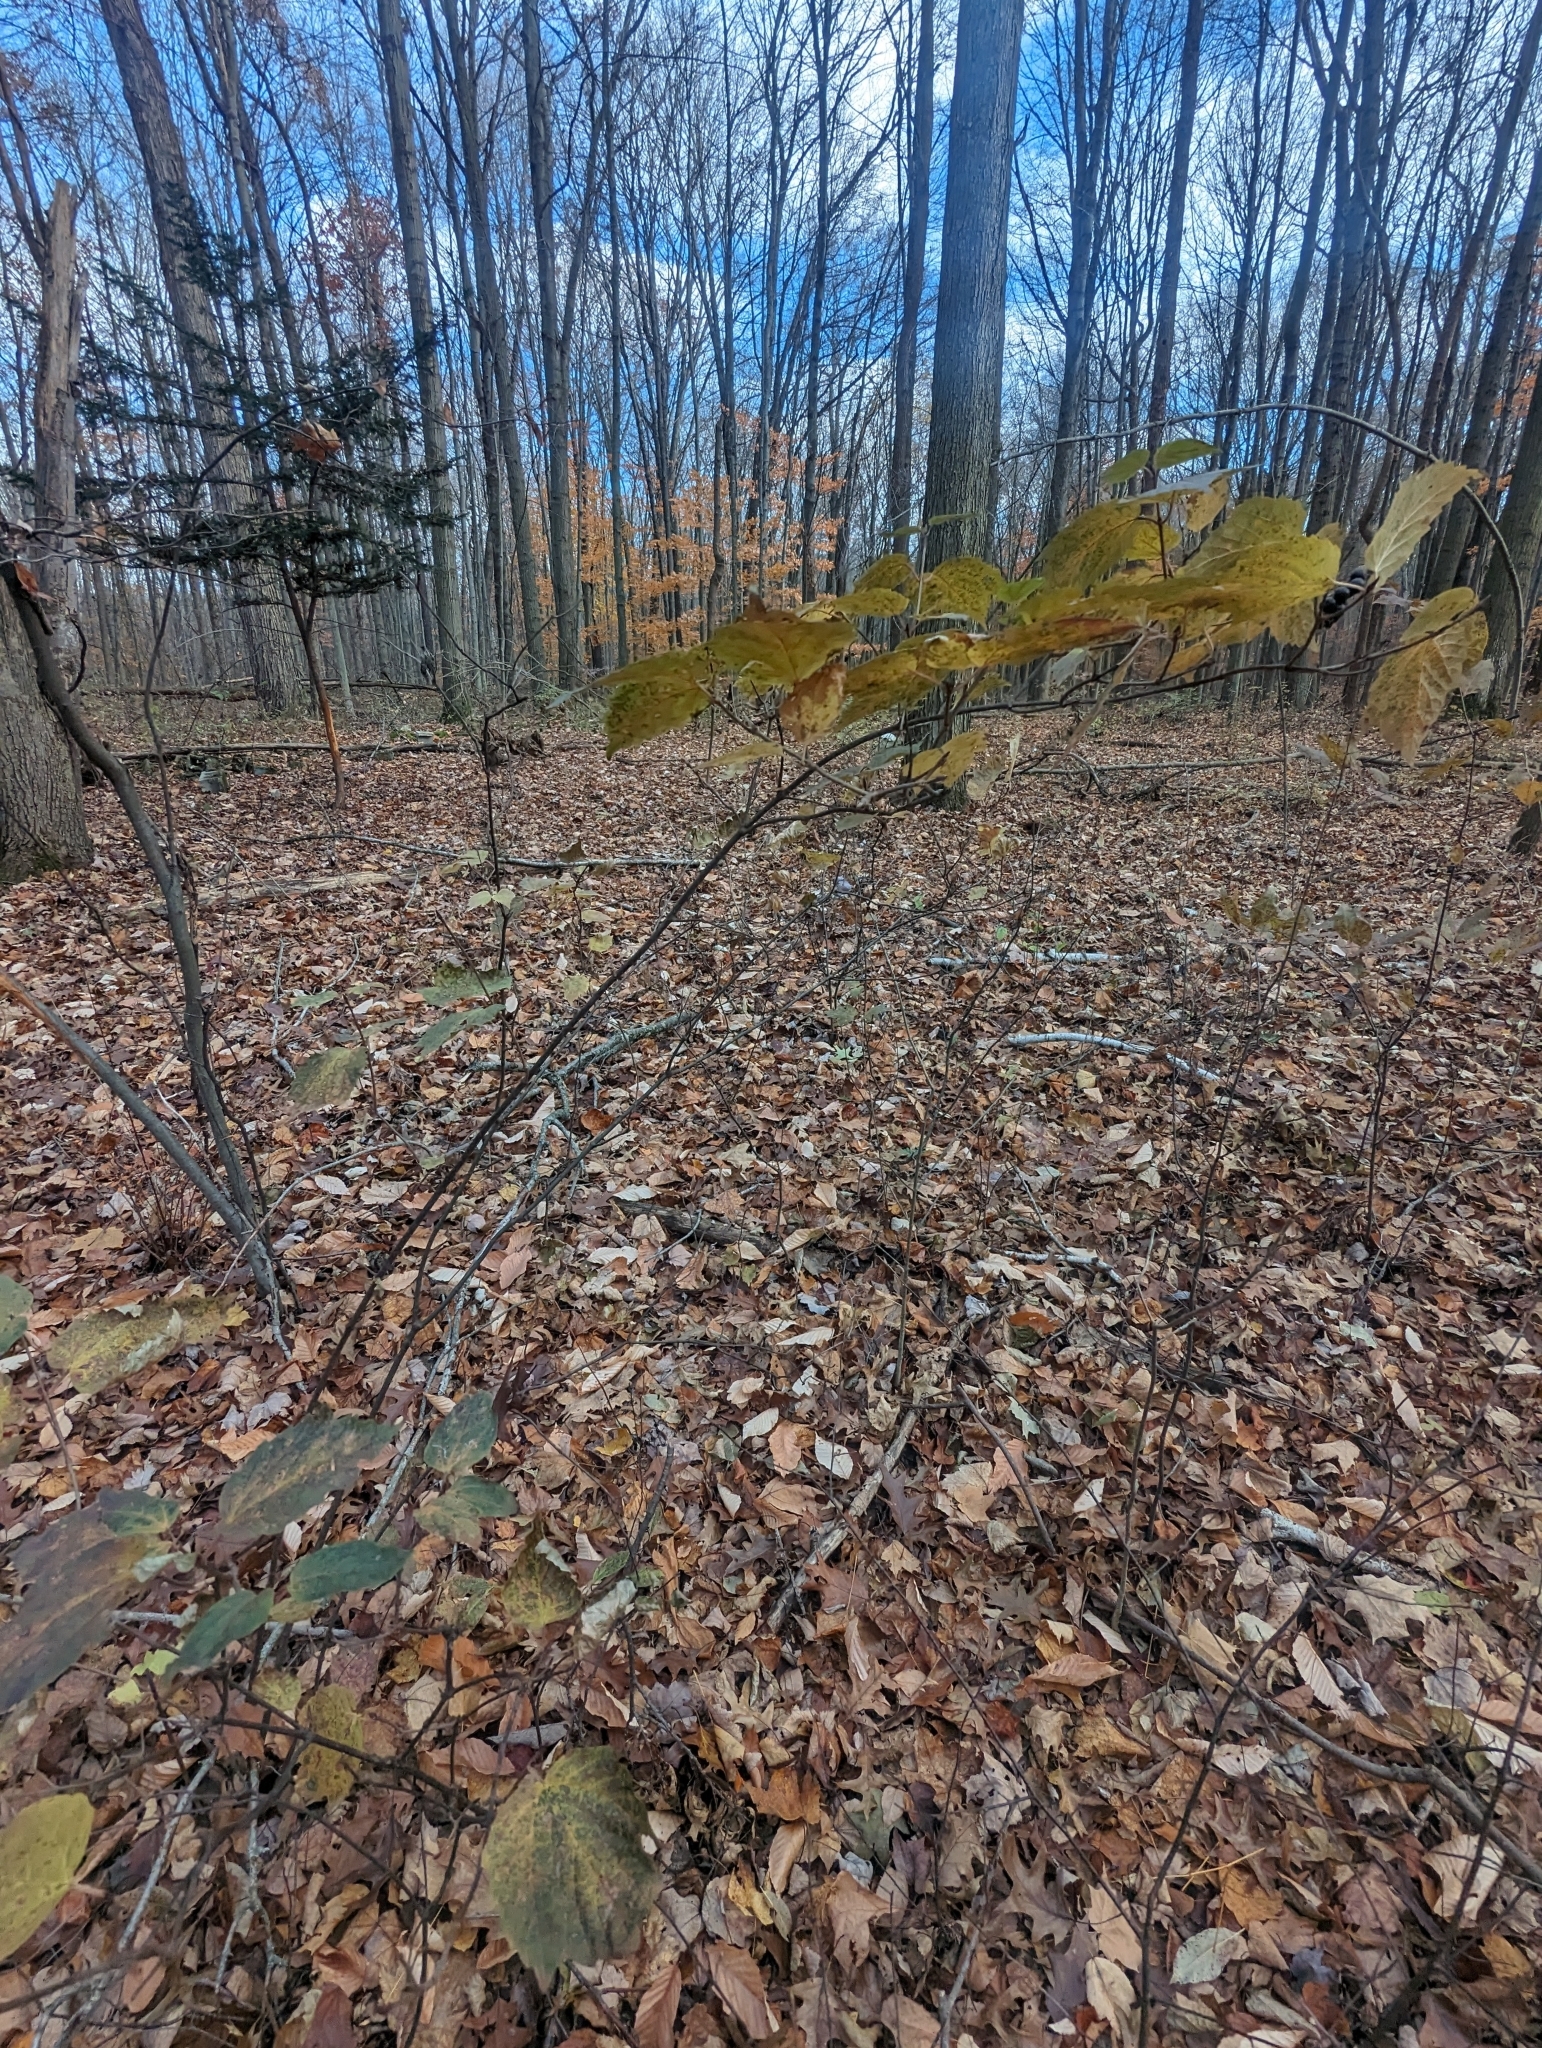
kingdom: Plantae
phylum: Tracheophyta
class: Magnoliopsida
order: Dipsacales
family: Viburnaceae
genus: Viburnum
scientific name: Viburnum acerifolium
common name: Dockmackie
